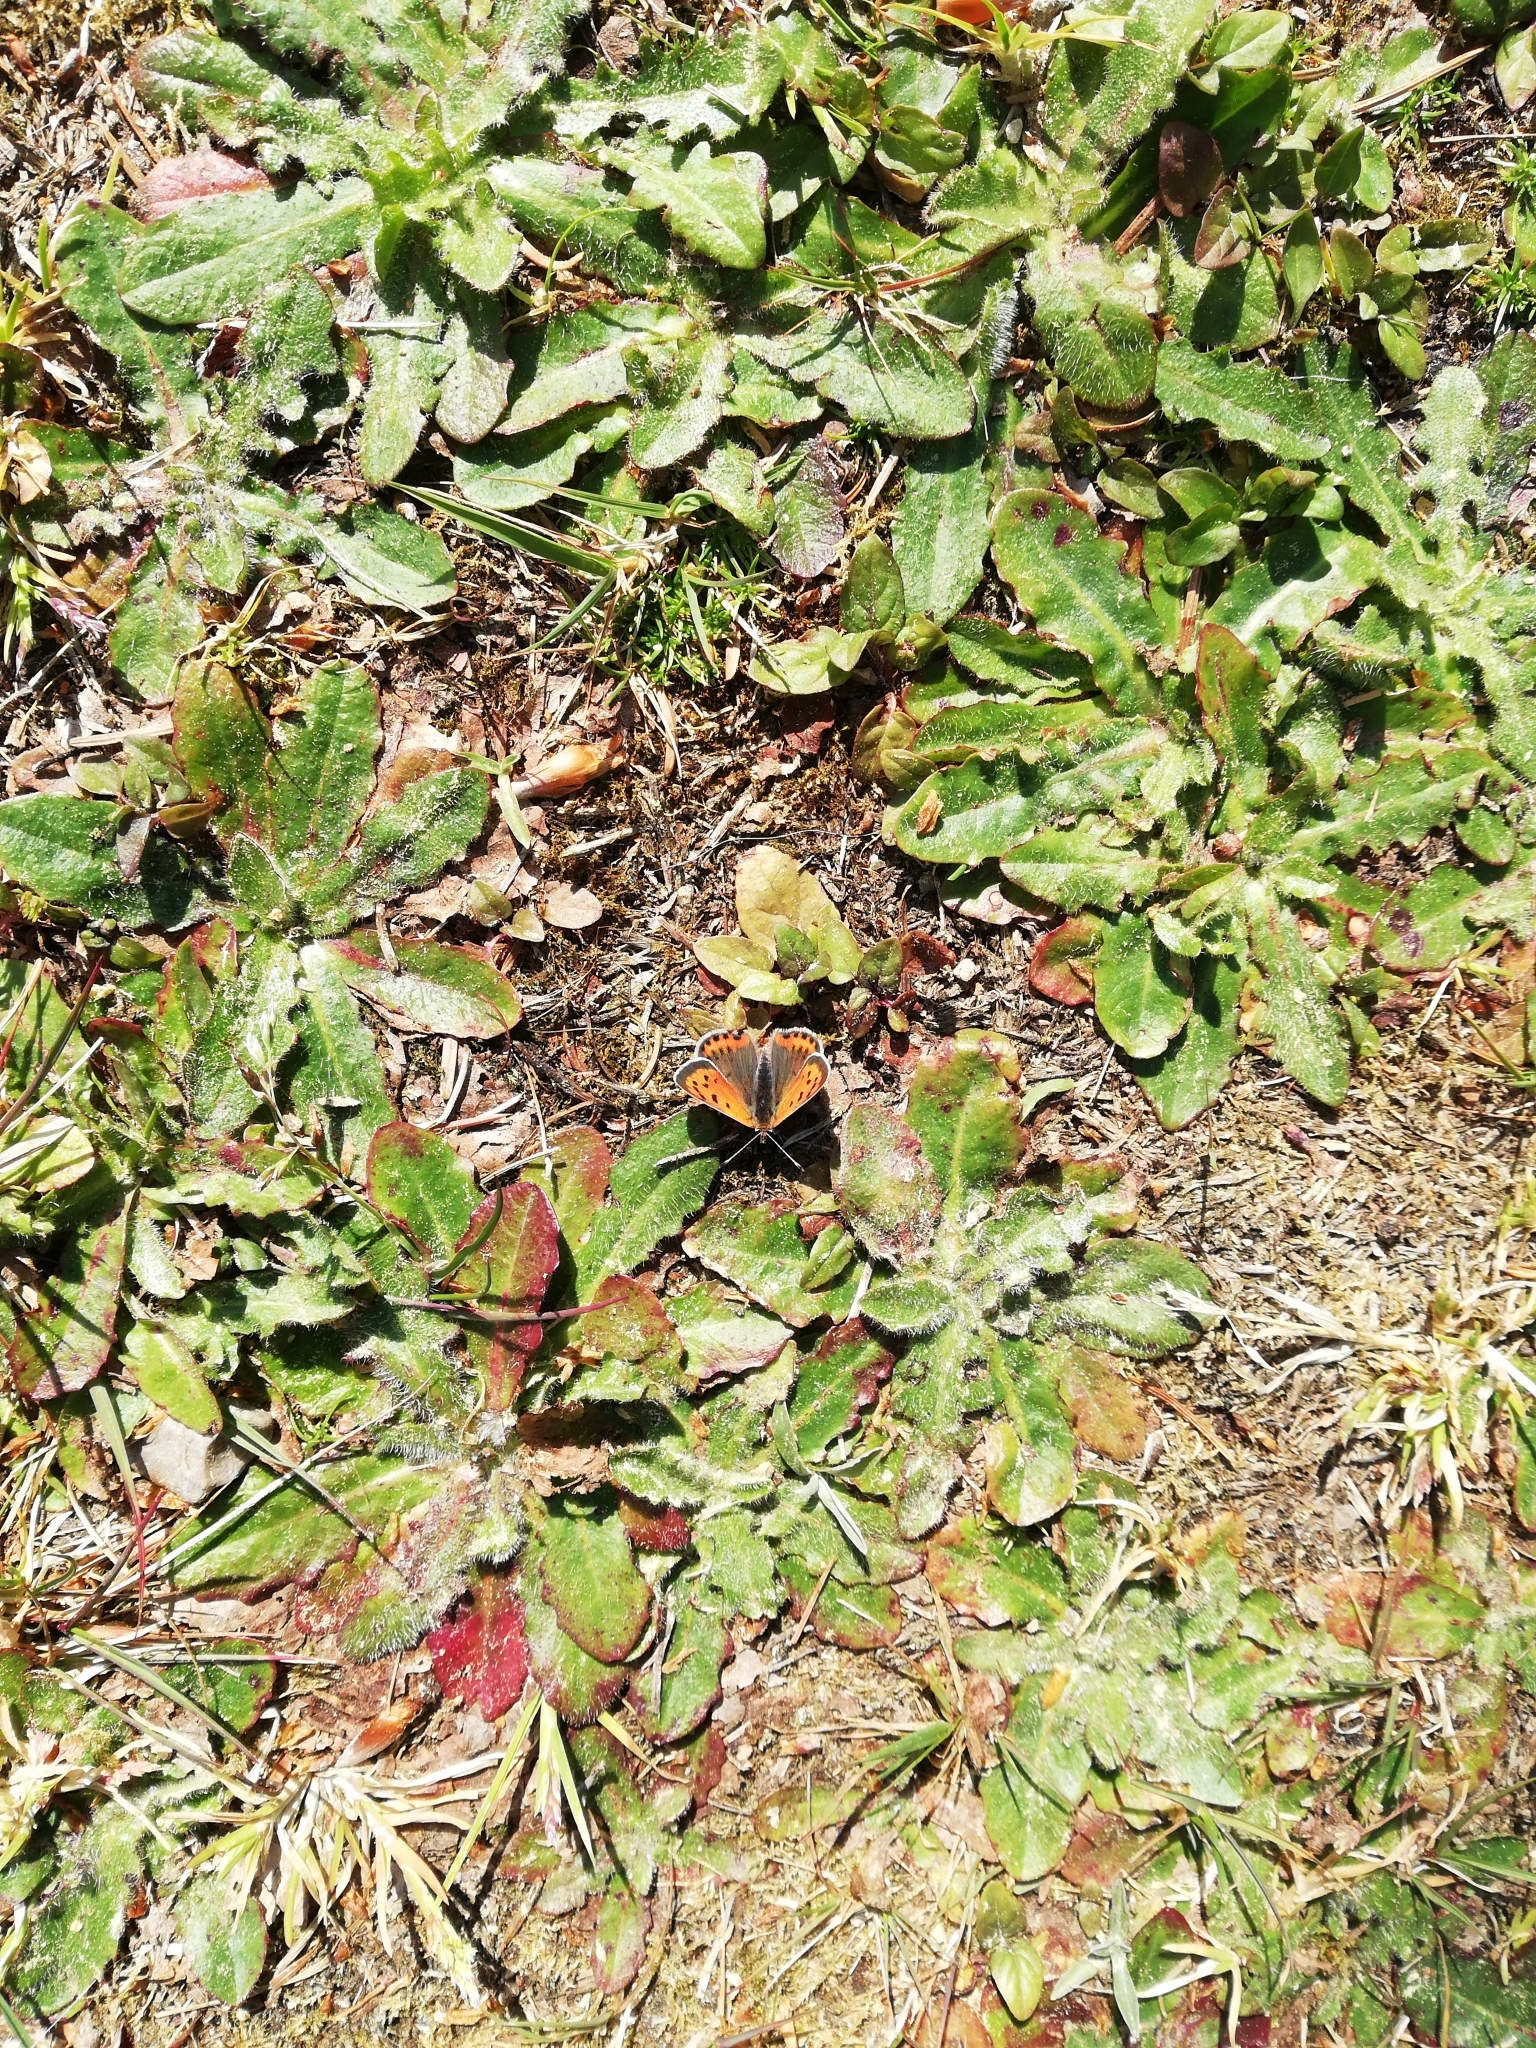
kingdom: Animalia
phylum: Arthropoda
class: Insecta
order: Lepidoptera
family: Lycaenidae
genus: Lycaena
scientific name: Lycaena phlaeas
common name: Small copper
